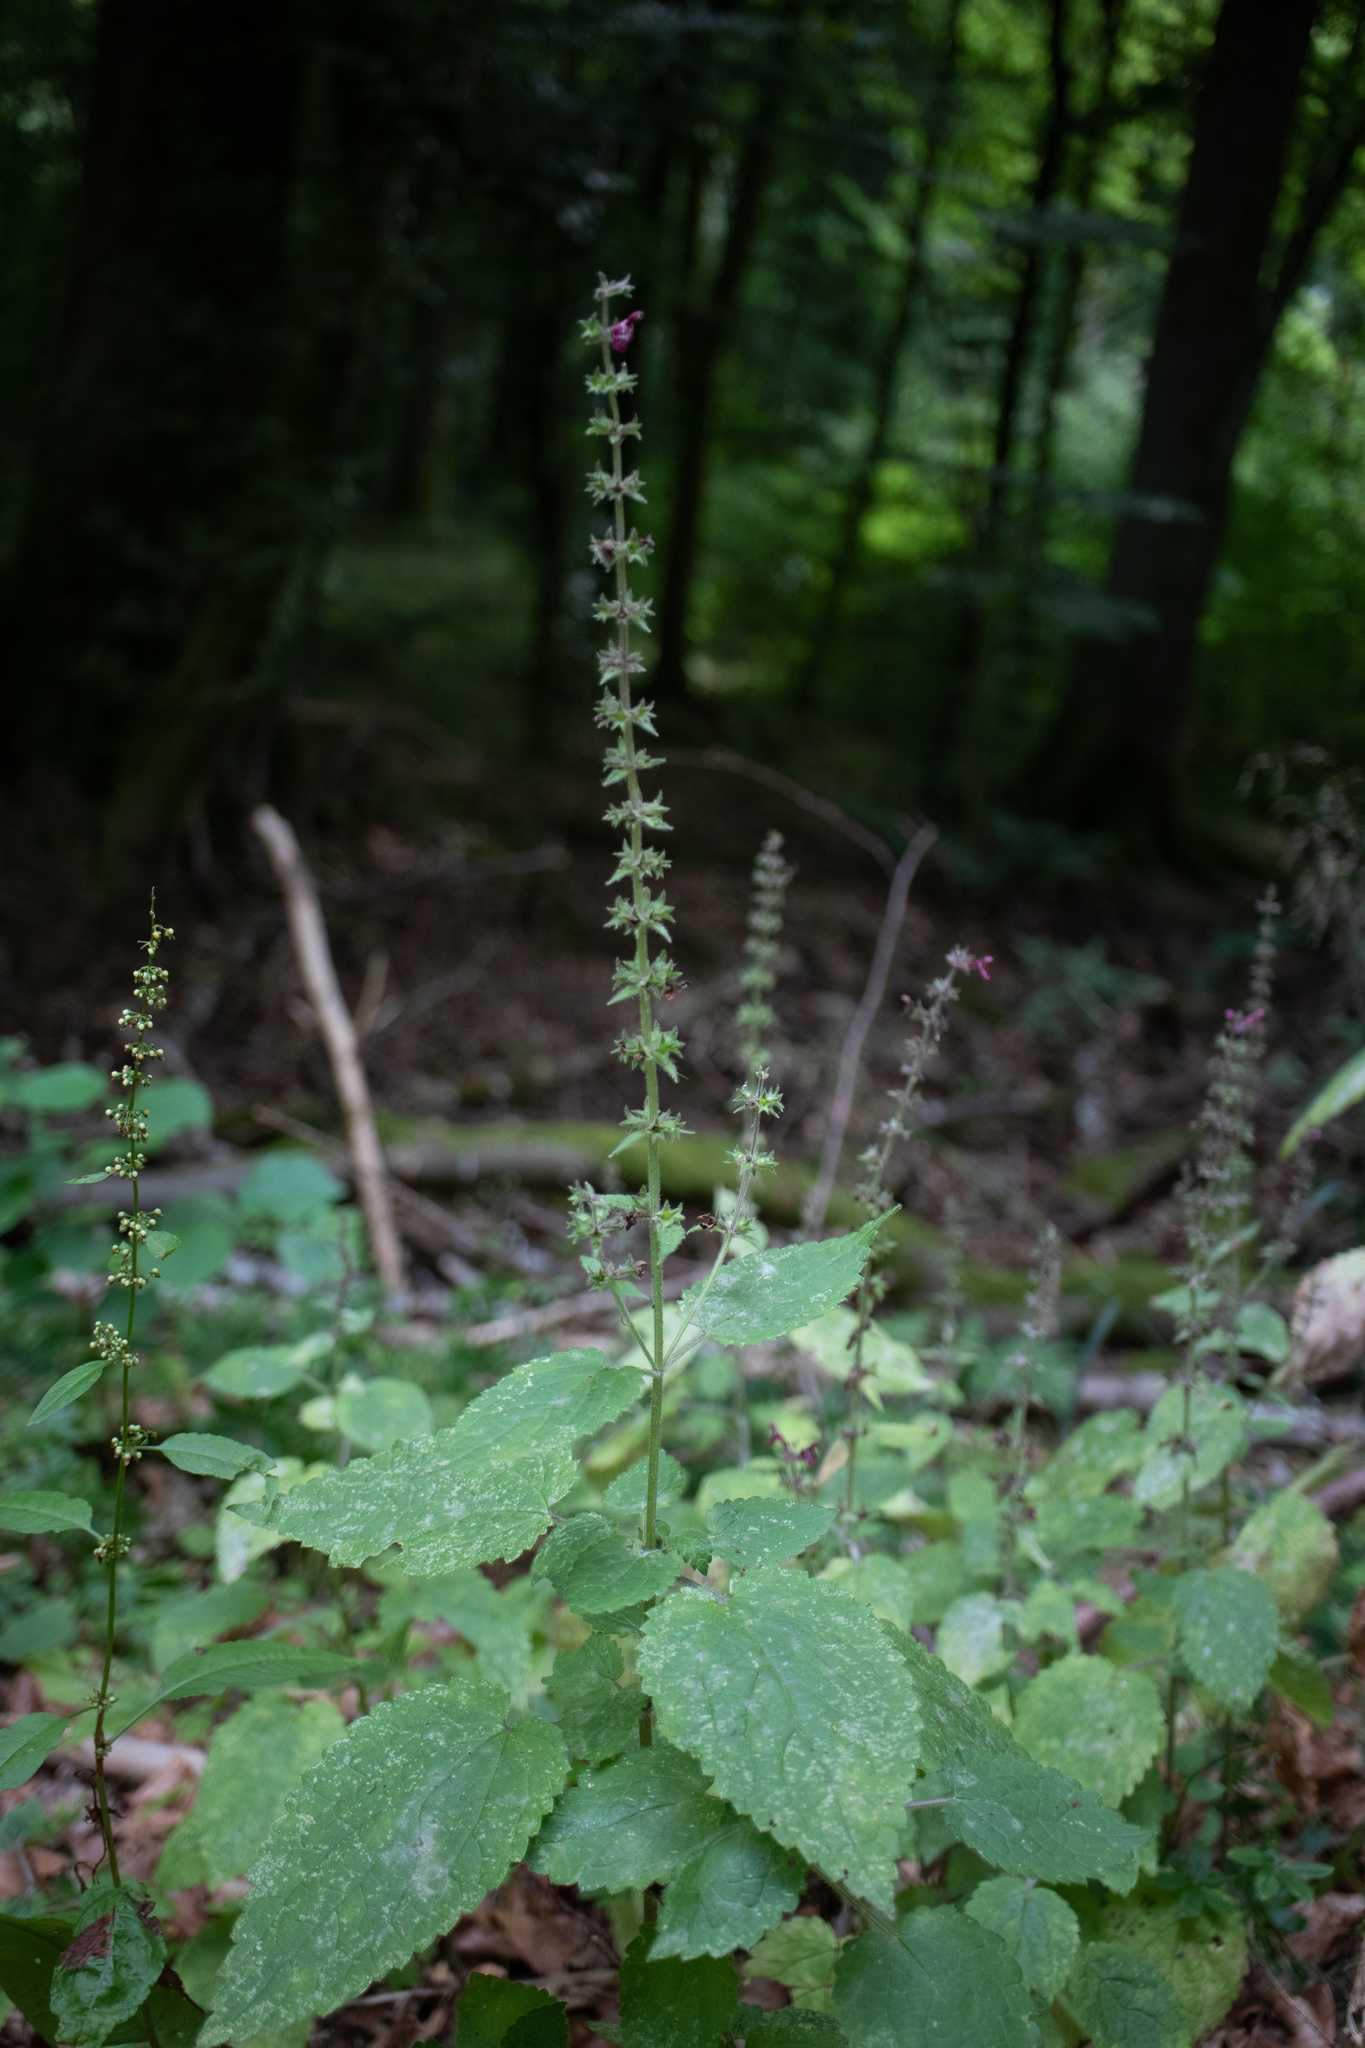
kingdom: Plantae
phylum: Tracheophyta
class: Magnoliopsida
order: Lamiales
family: Lamiaceae
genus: Stachys
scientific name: Stachys sylvatica
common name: Hedge woundwort
